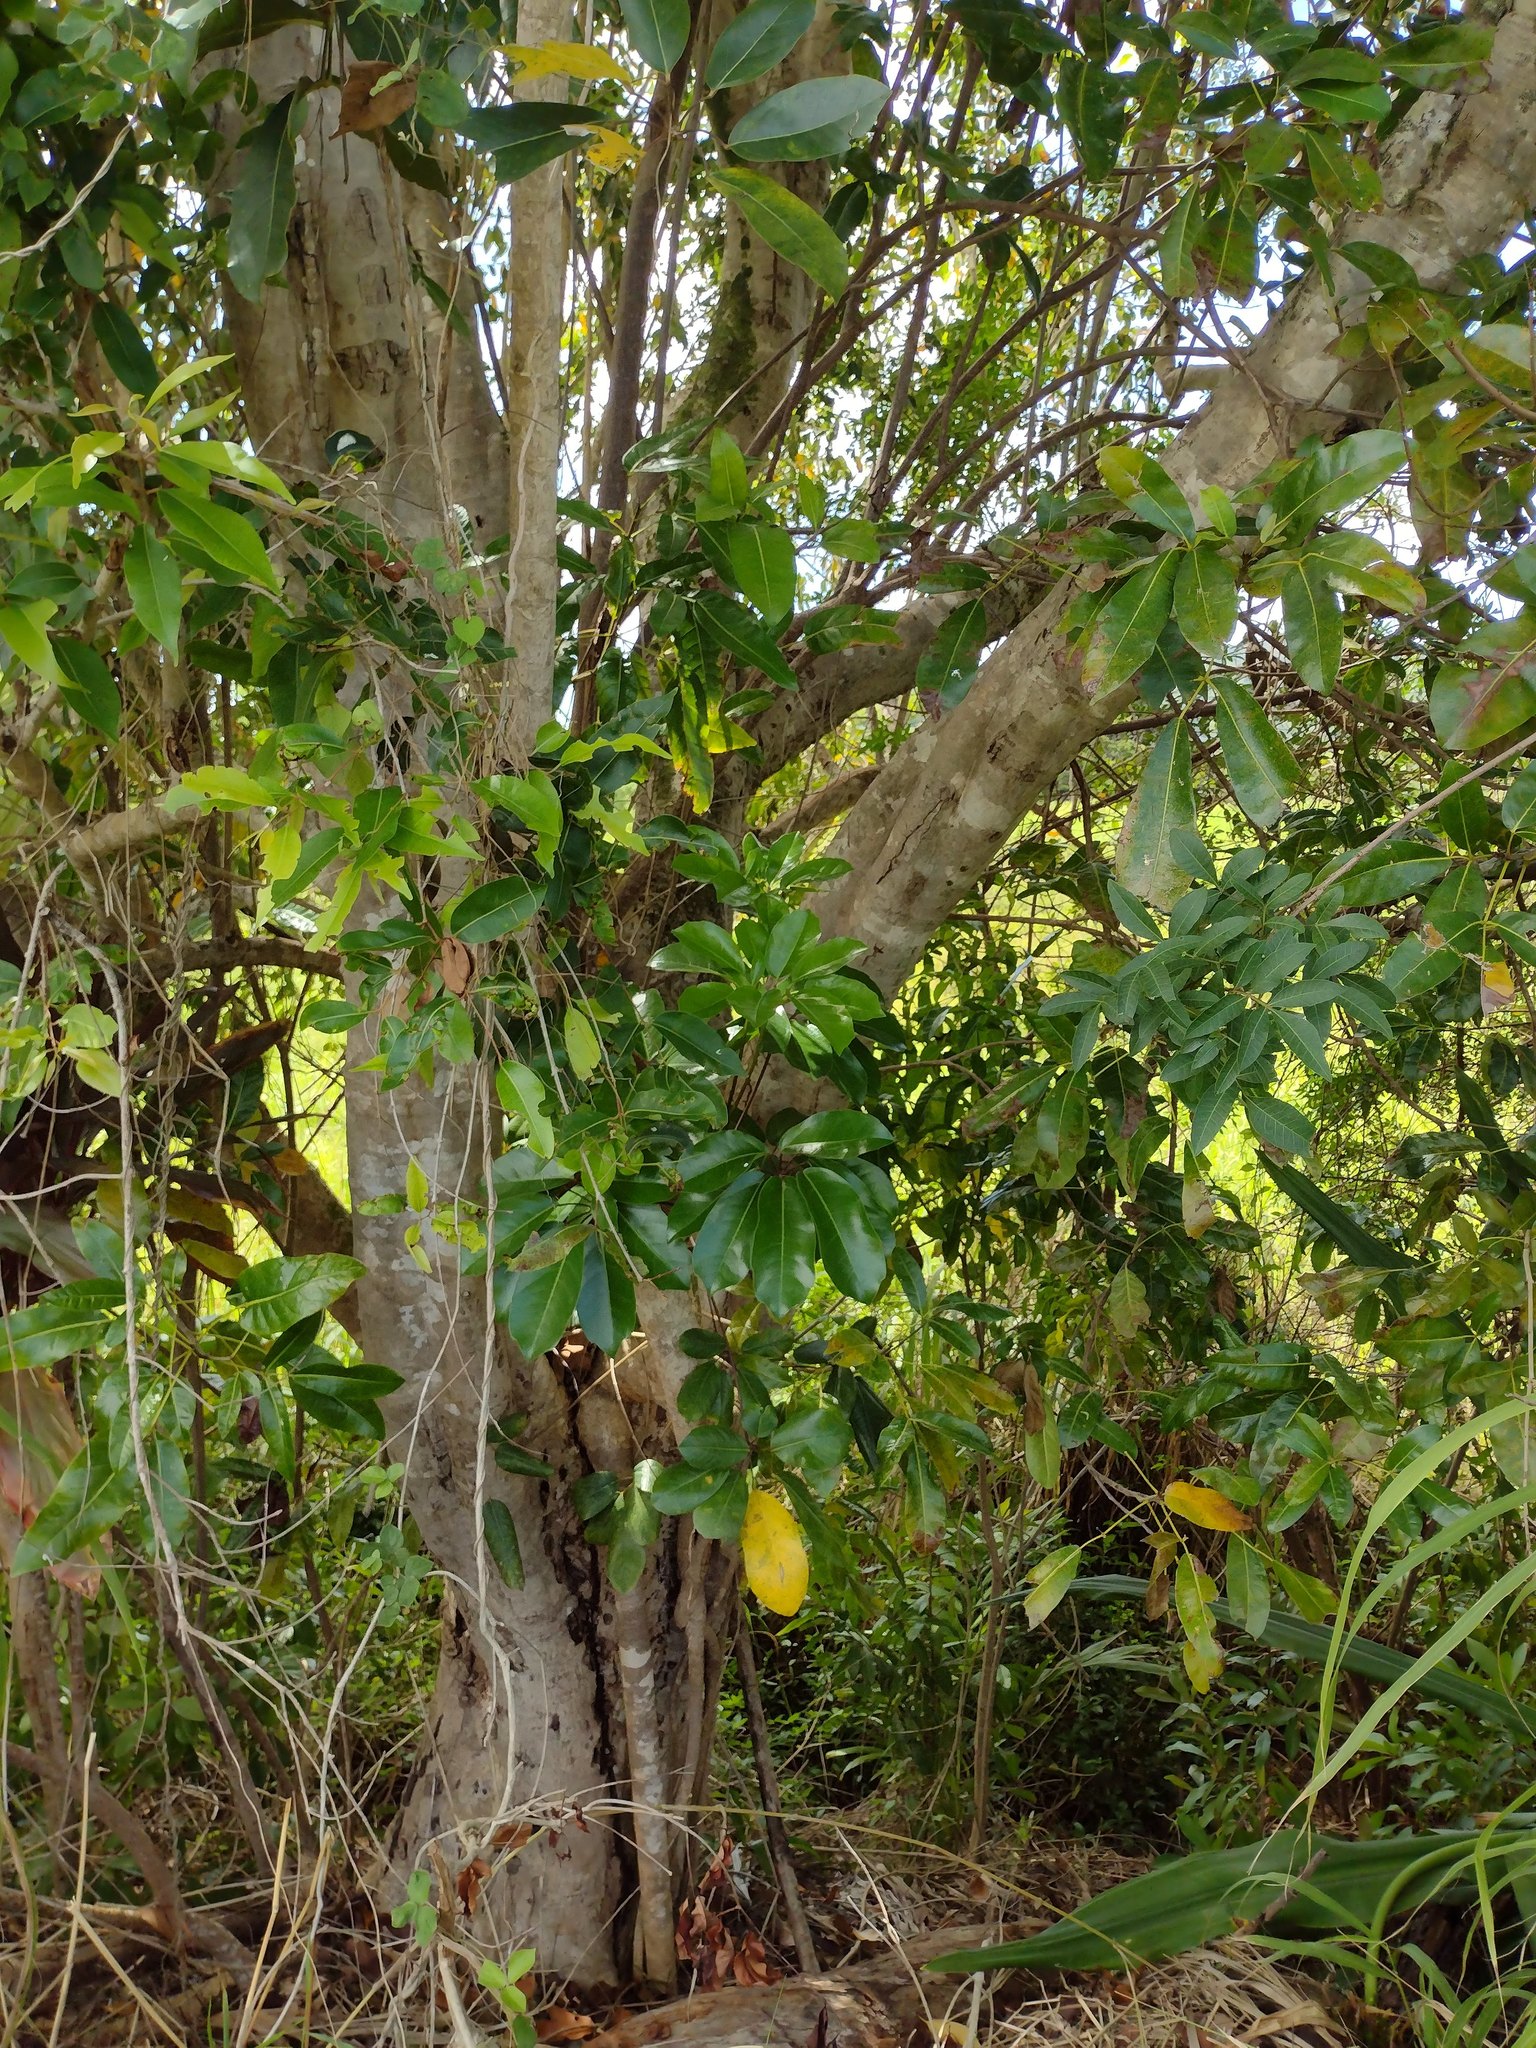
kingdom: Plantae
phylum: Tracheophyta
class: Magnoliopsida
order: Apiales
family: Araliaceae
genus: Heptapleurum
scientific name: Heptapleurum actinophyllum
